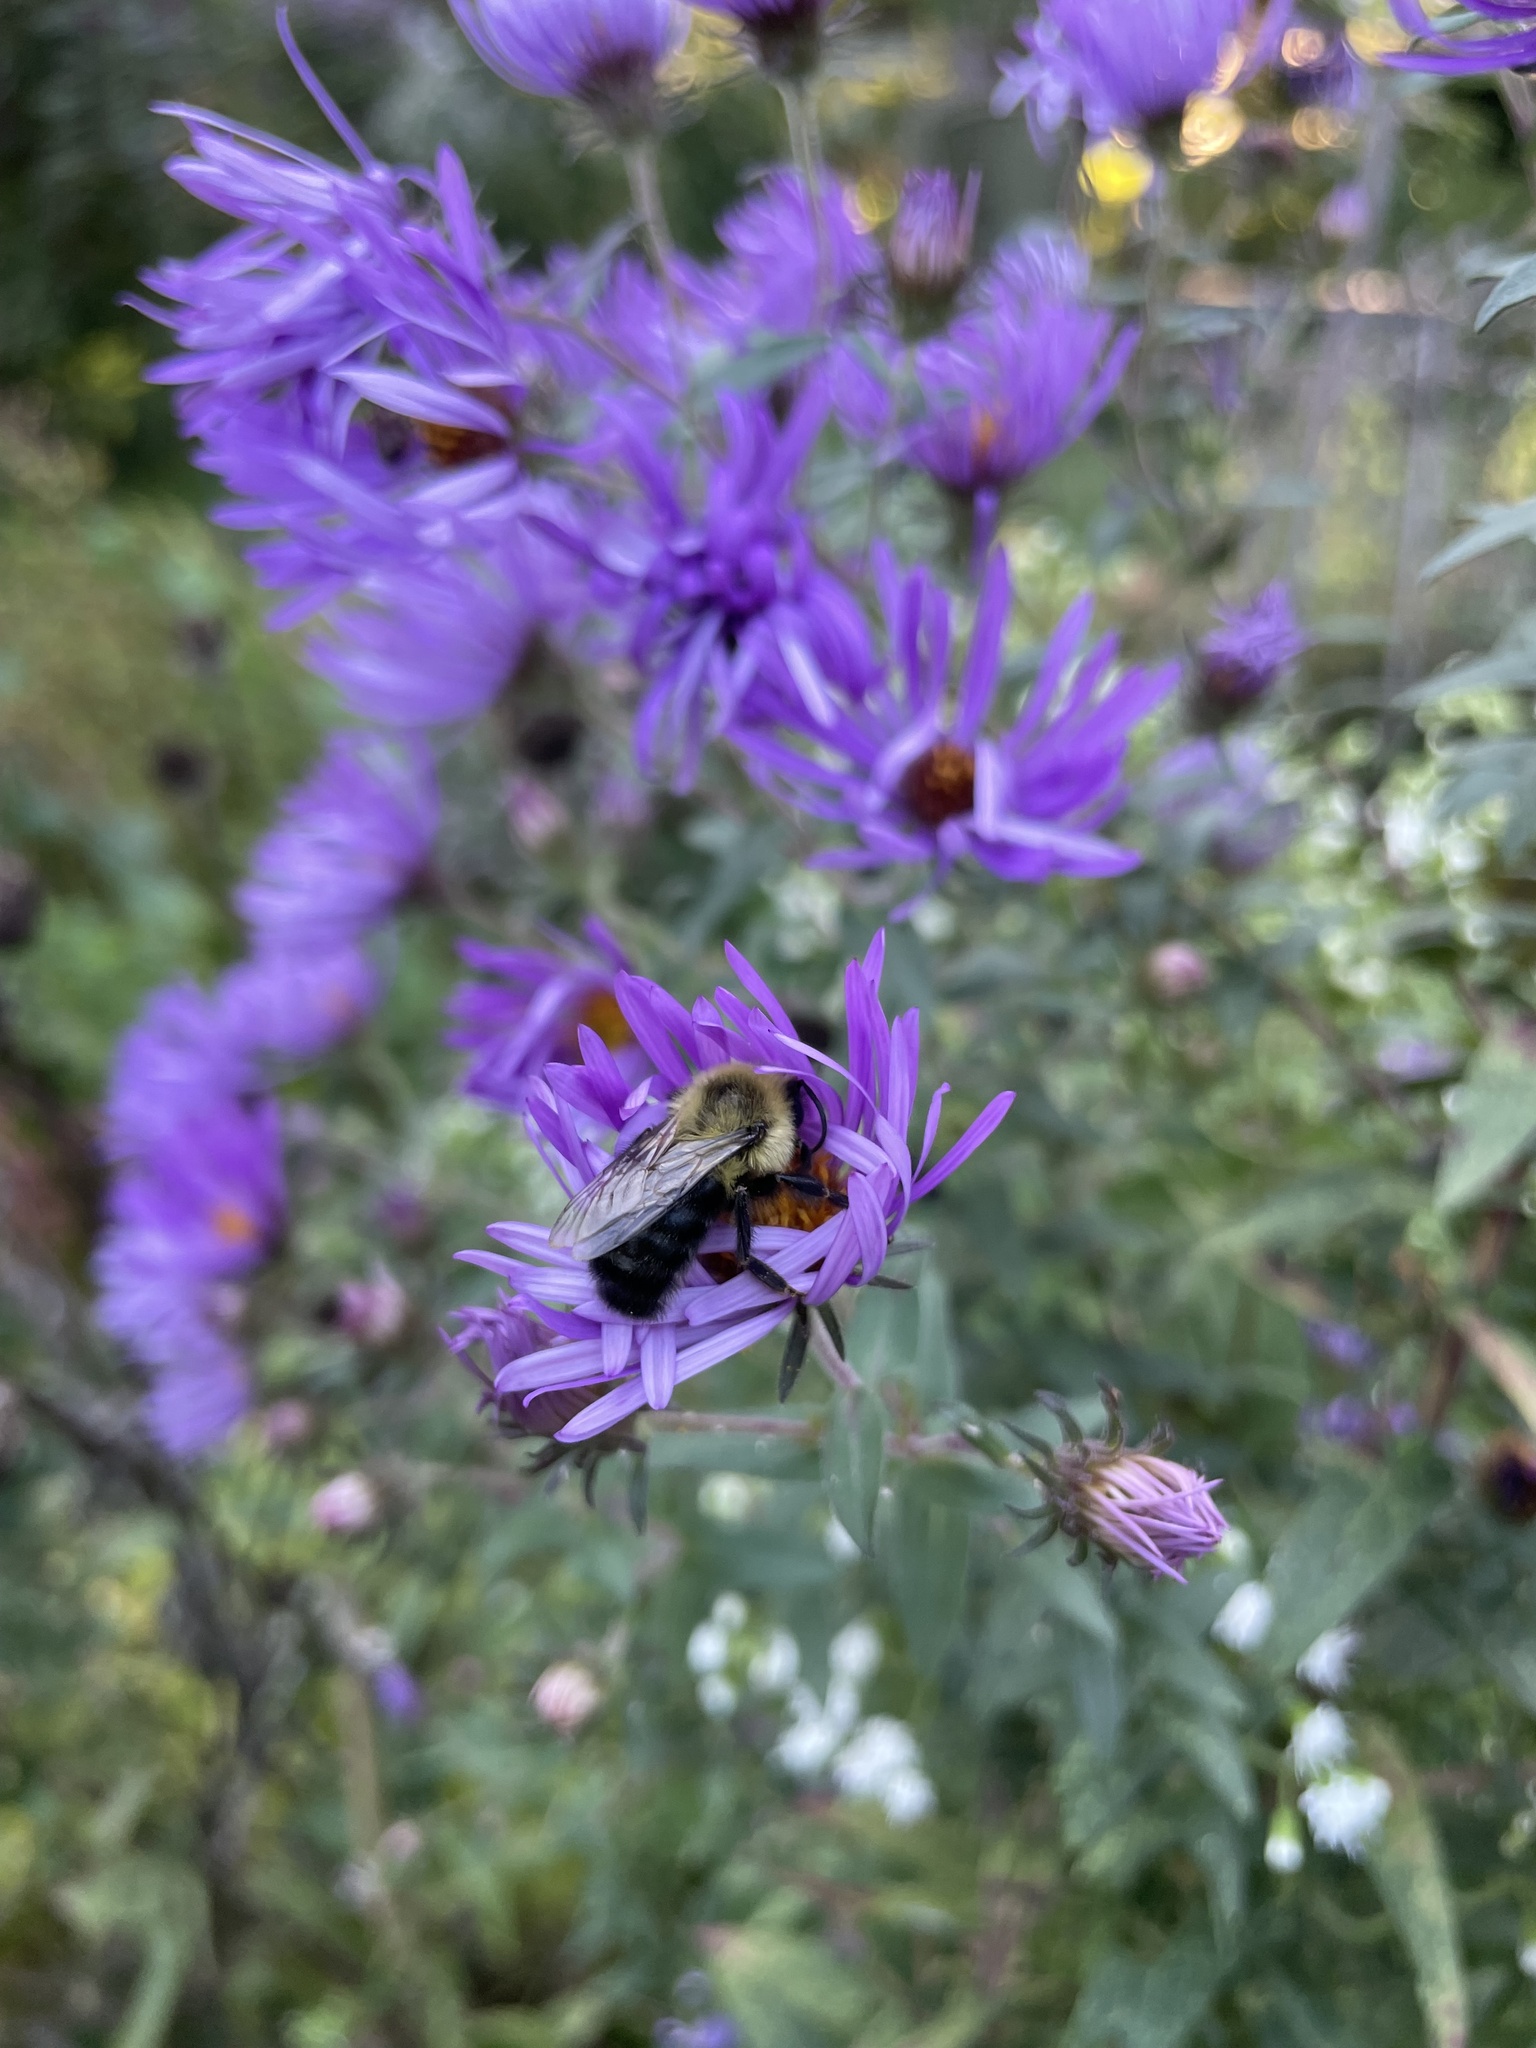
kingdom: Animalia
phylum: Arthropoda
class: Insecta
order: Hymenoptera
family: Apidae
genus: Bombus
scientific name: Bombus impatiens
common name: Common eastern bumble bee
